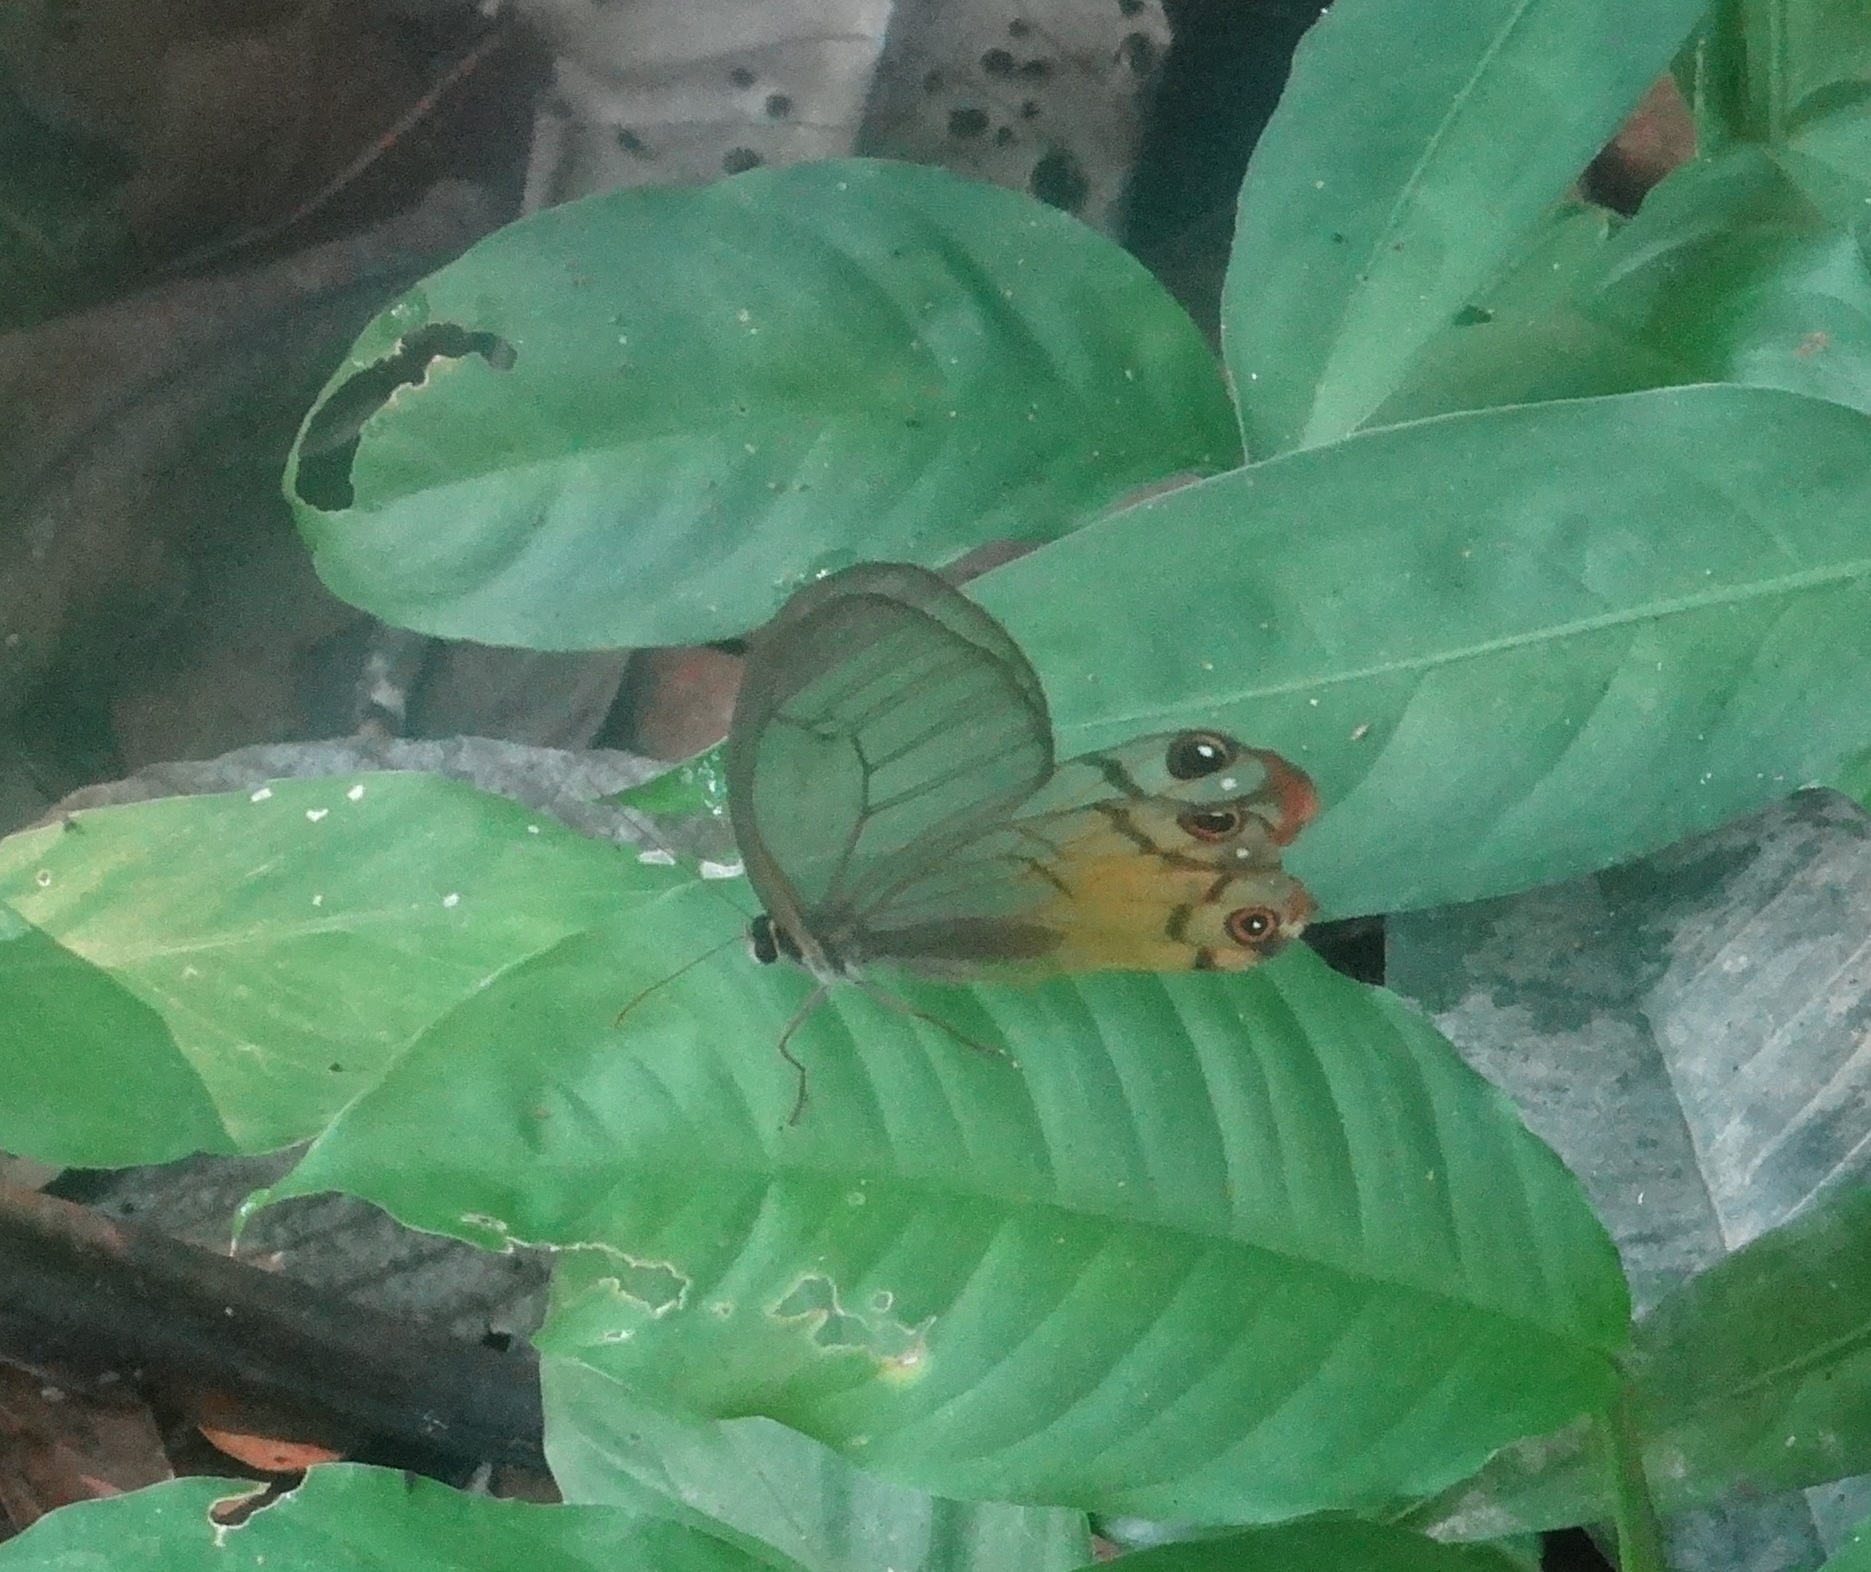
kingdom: Animalia
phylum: Arthropoda
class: Insecta
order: Lepidoptera
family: Nymphalidae
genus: Haetera
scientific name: Haetera piera
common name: Amber phantom
